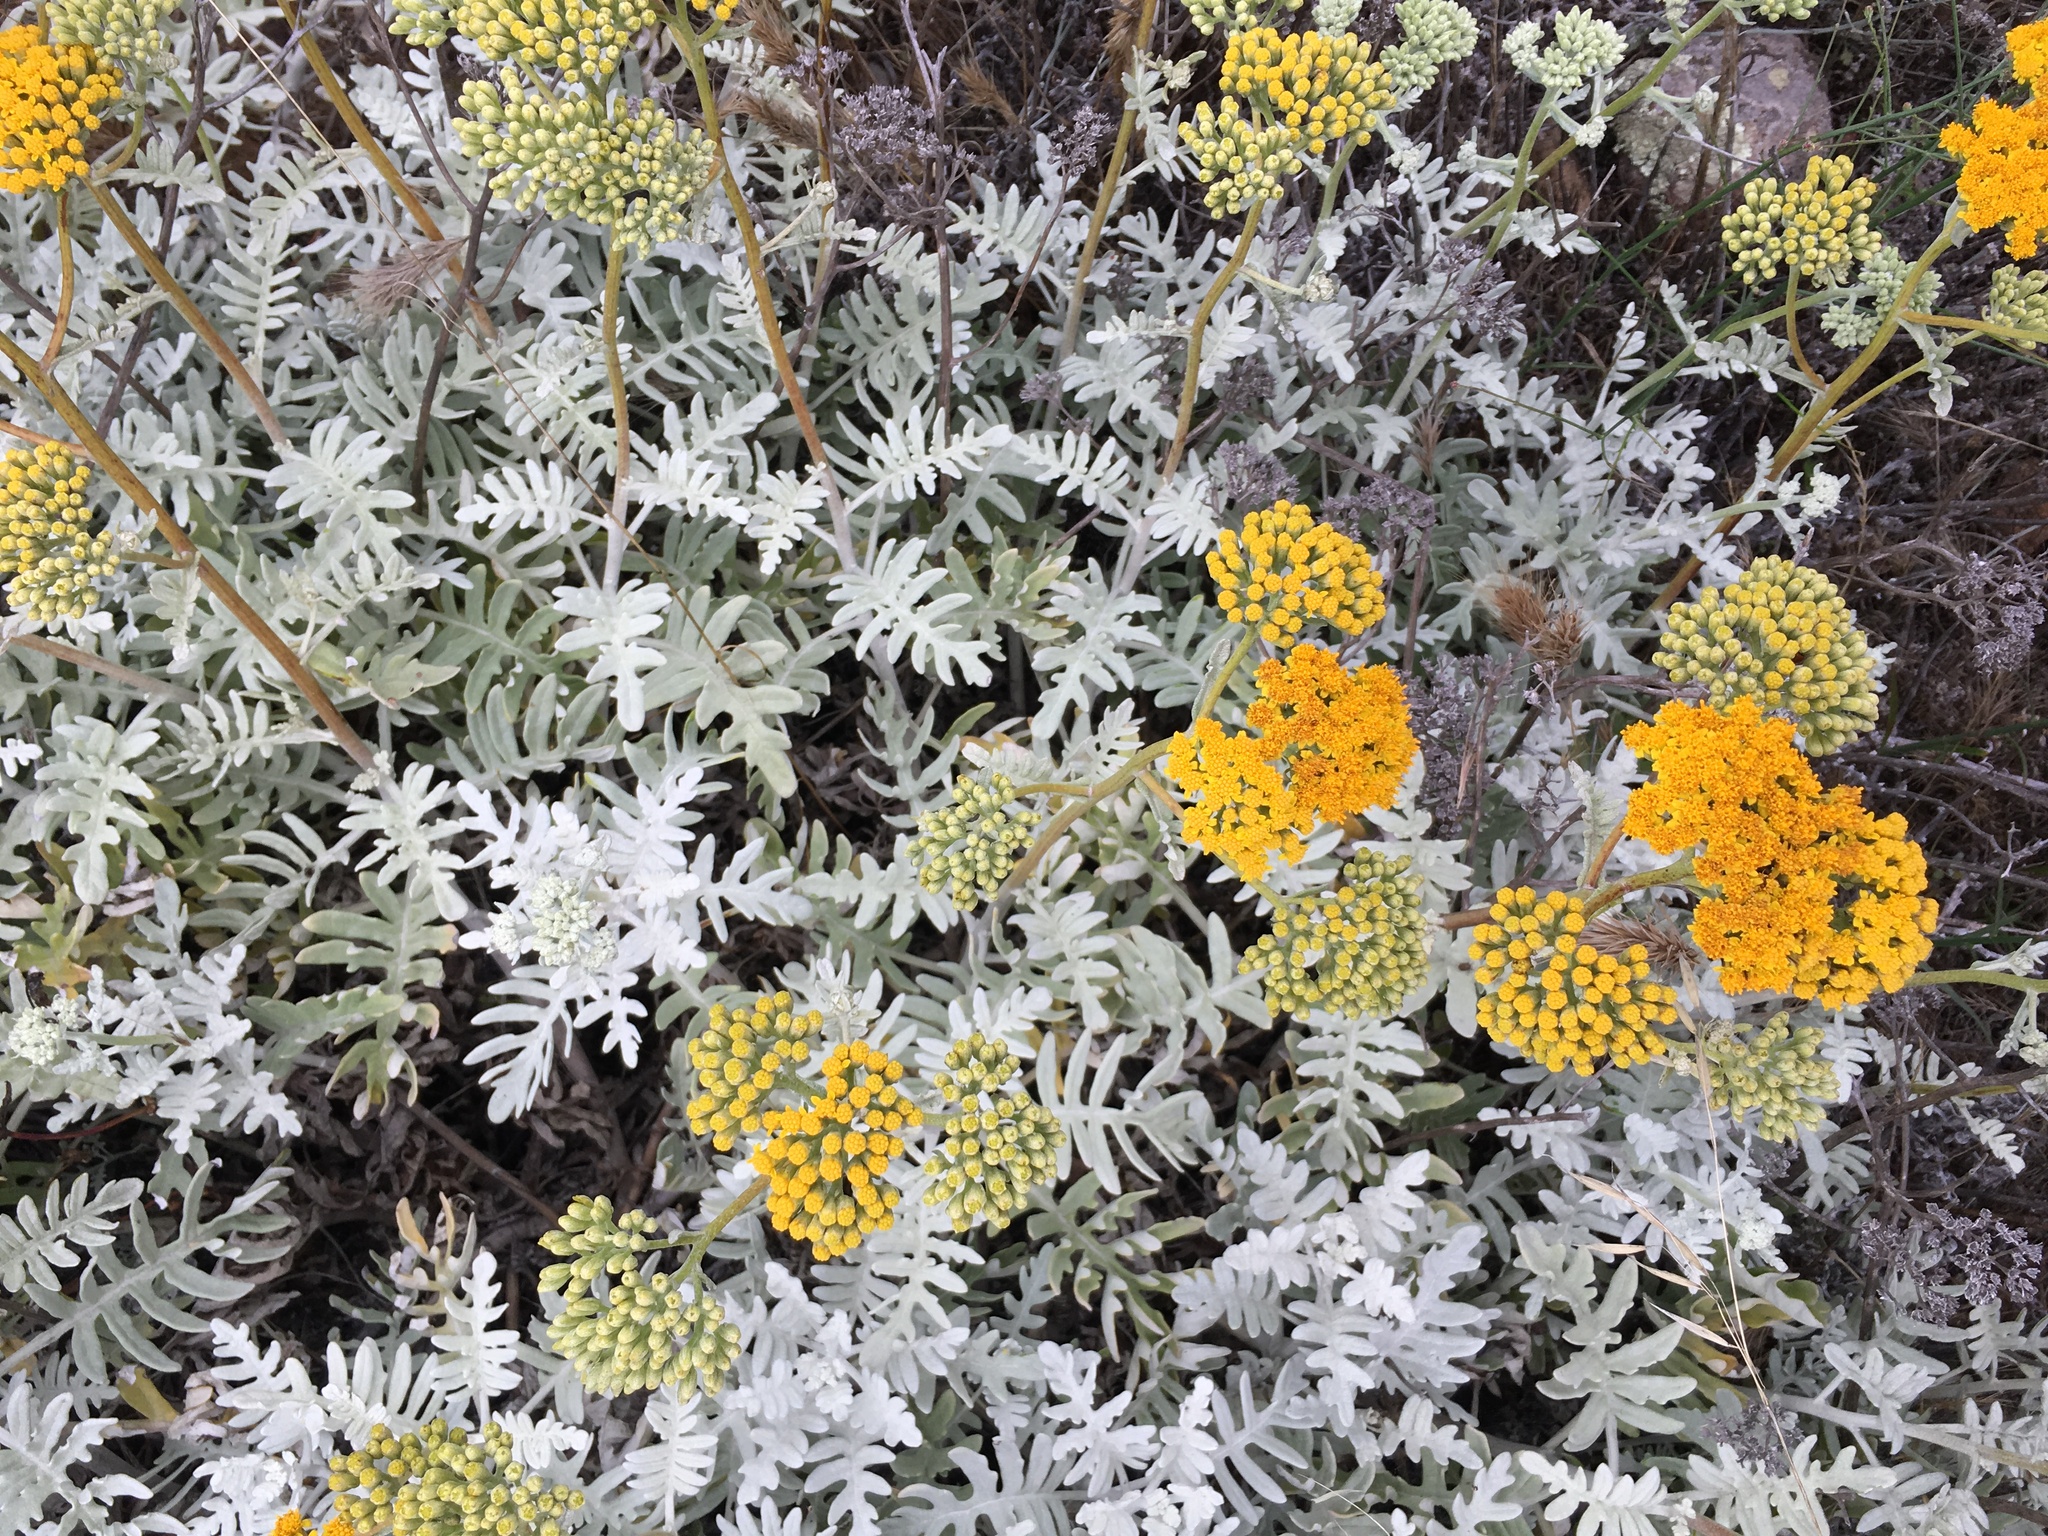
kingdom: Plantae
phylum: Tracheophyta
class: Magnoliopsida
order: Asterales
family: Asteraceae
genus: Constancea
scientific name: Constancea nevinii
